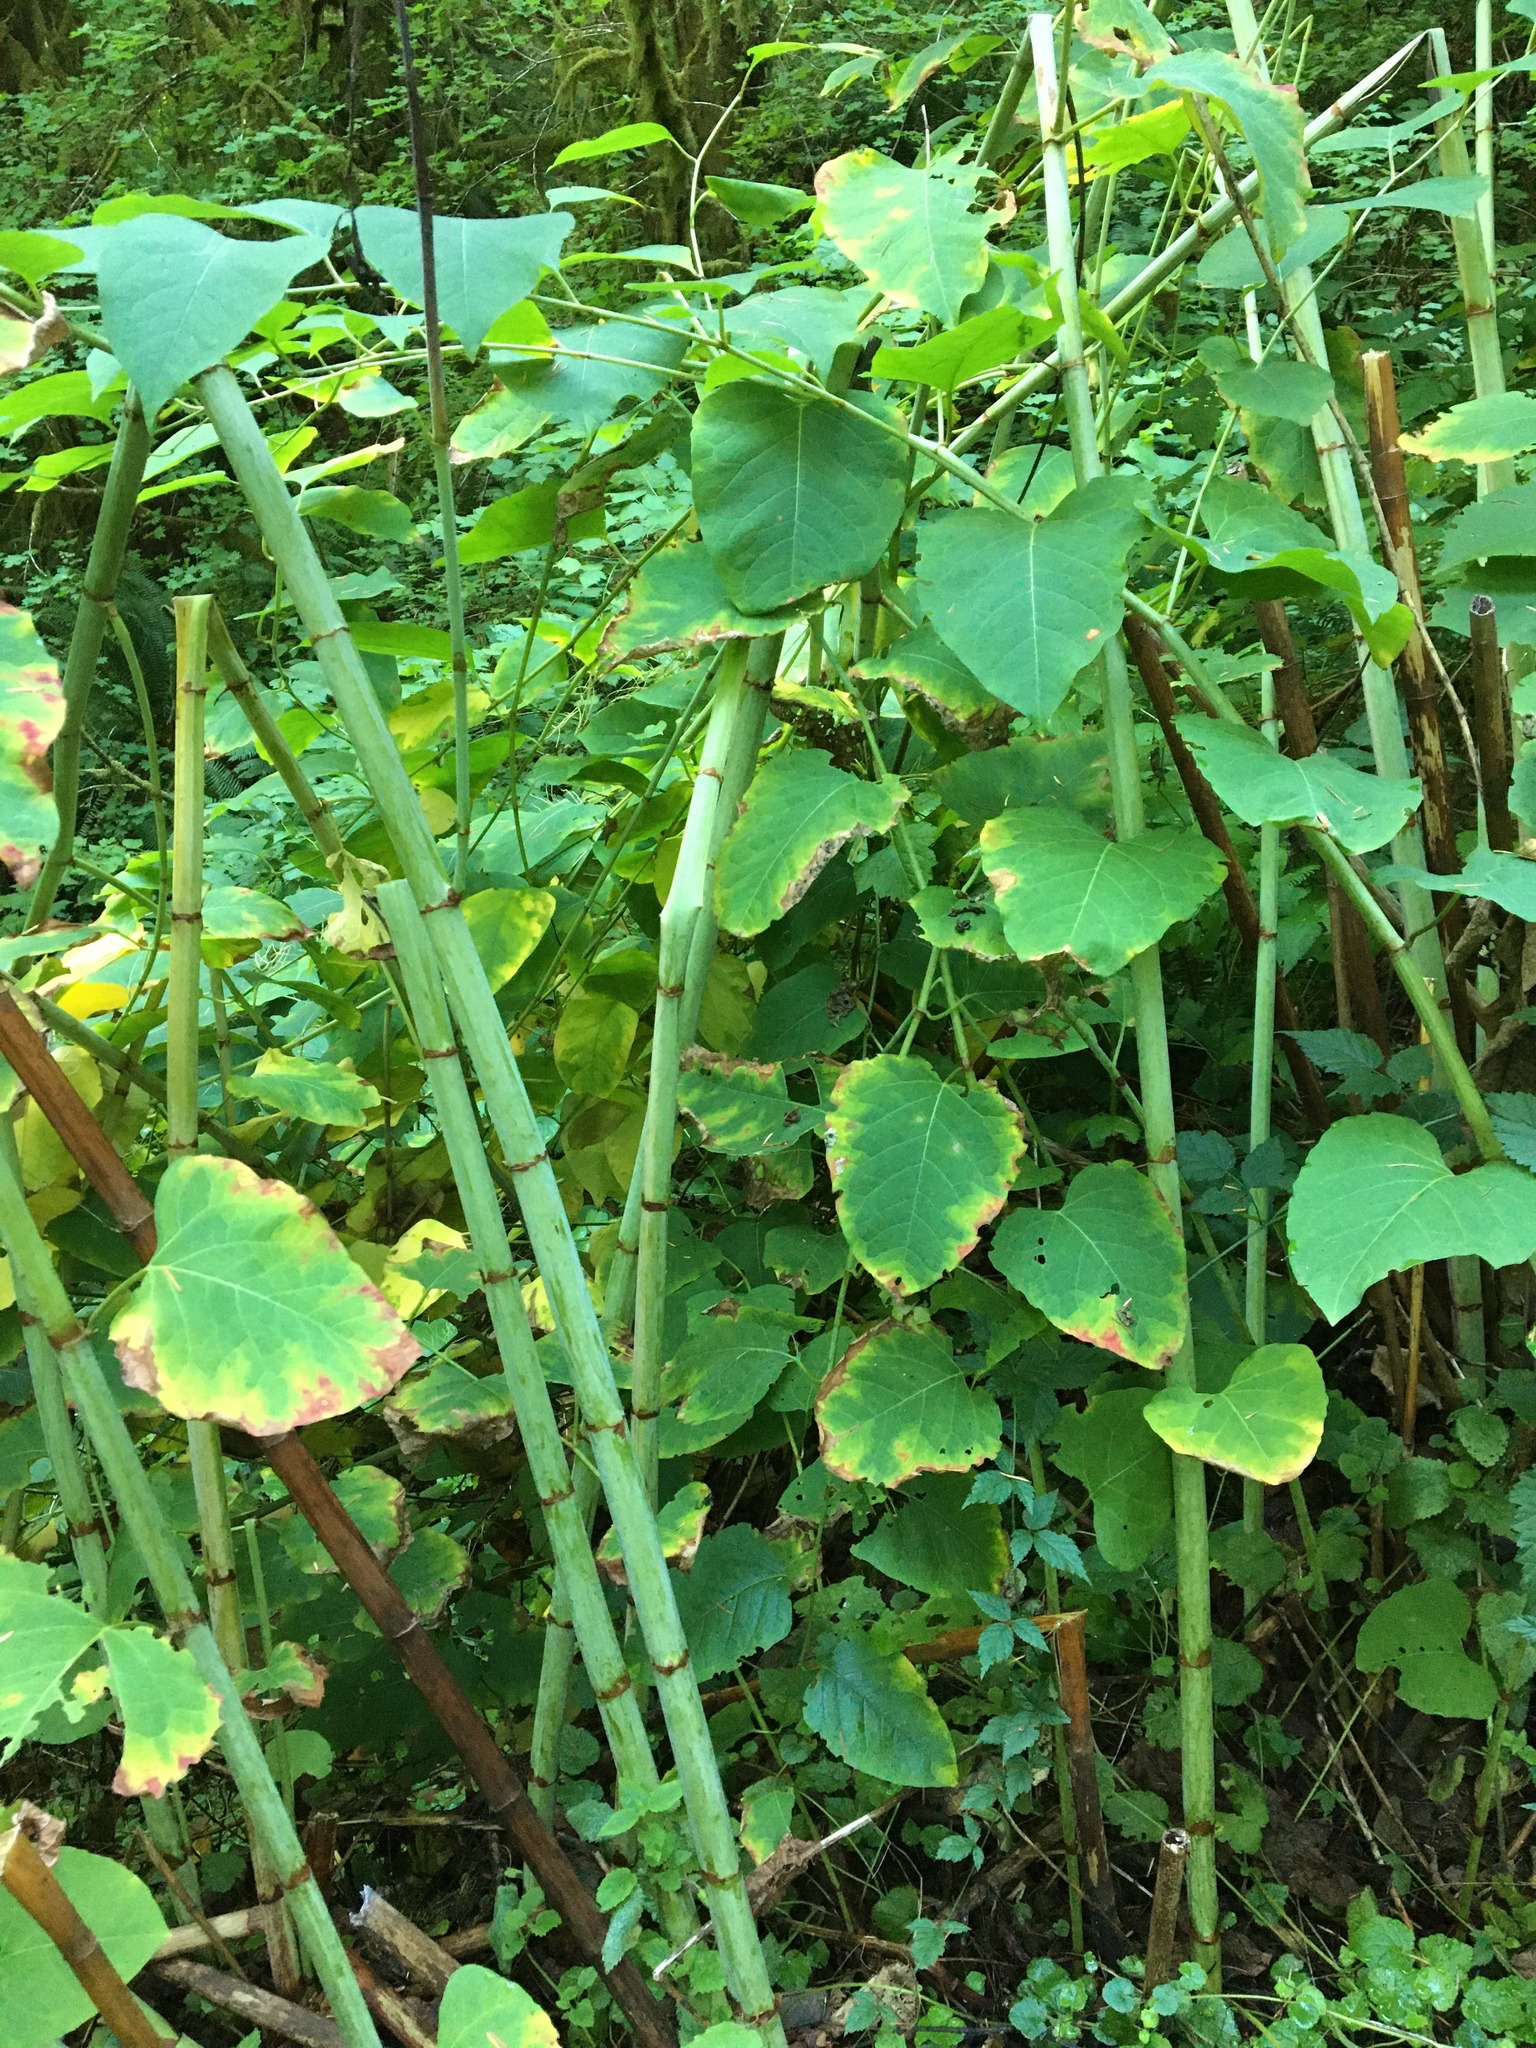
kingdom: Plantae
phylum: Tracheophyta
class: Magnoliopsida
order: Caryophyllales
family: Polygonaceae
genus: Reynoutria
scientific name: Reynoutria bohemica
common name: Bohemian knotweed
